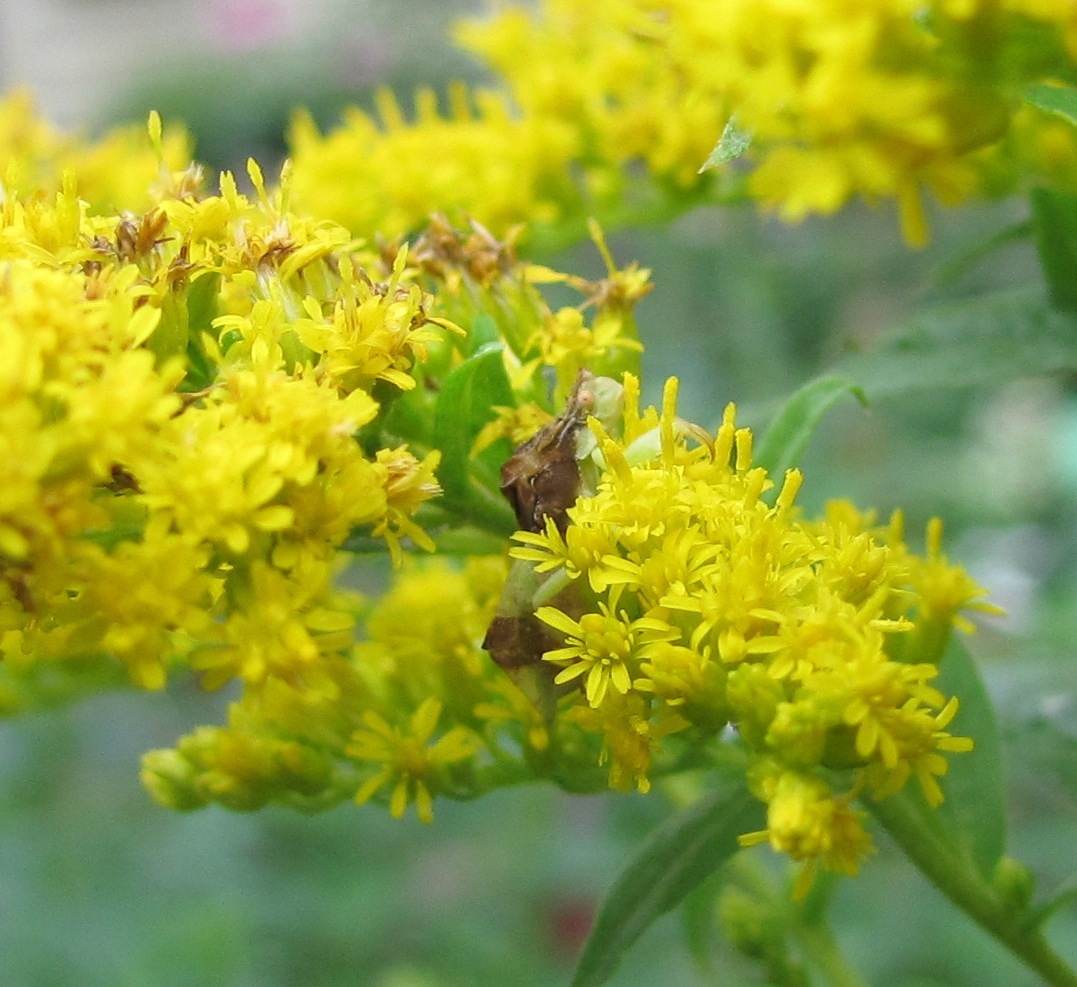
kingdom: Animalia
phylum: Arthropoda
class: Insecta
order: Hemiptera
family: Reduviidae
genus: Phymata
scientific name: Phymata pennsylvanica
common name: Pennsylvania ambush bug
